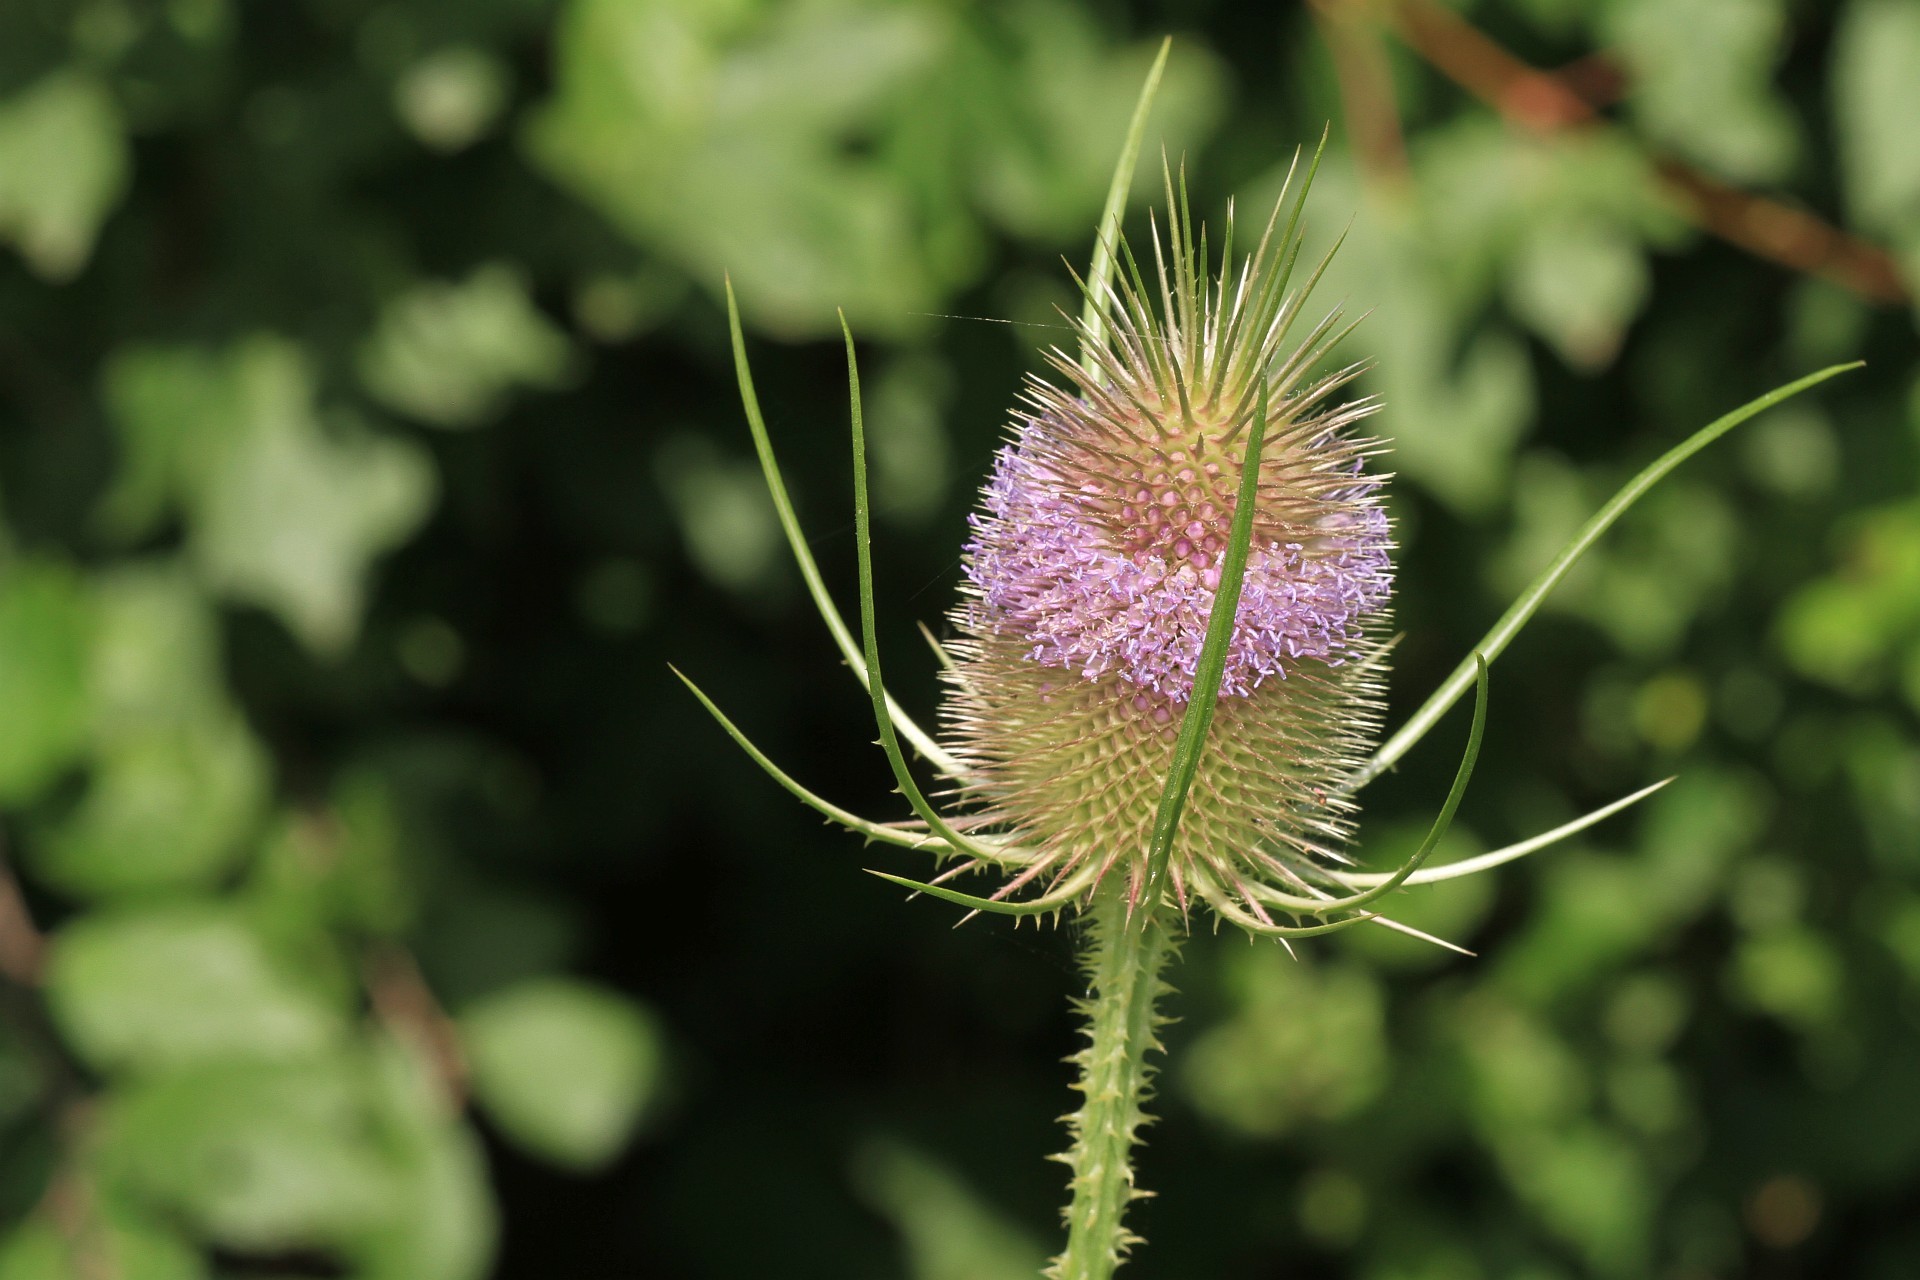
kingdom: Plantae
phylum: Tracheophyta
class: Magnoliopsida
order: Dipsacales
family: Caprifoliaceae
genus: Dipsacus
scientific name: Dipsacus fullonum
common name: Teasel
